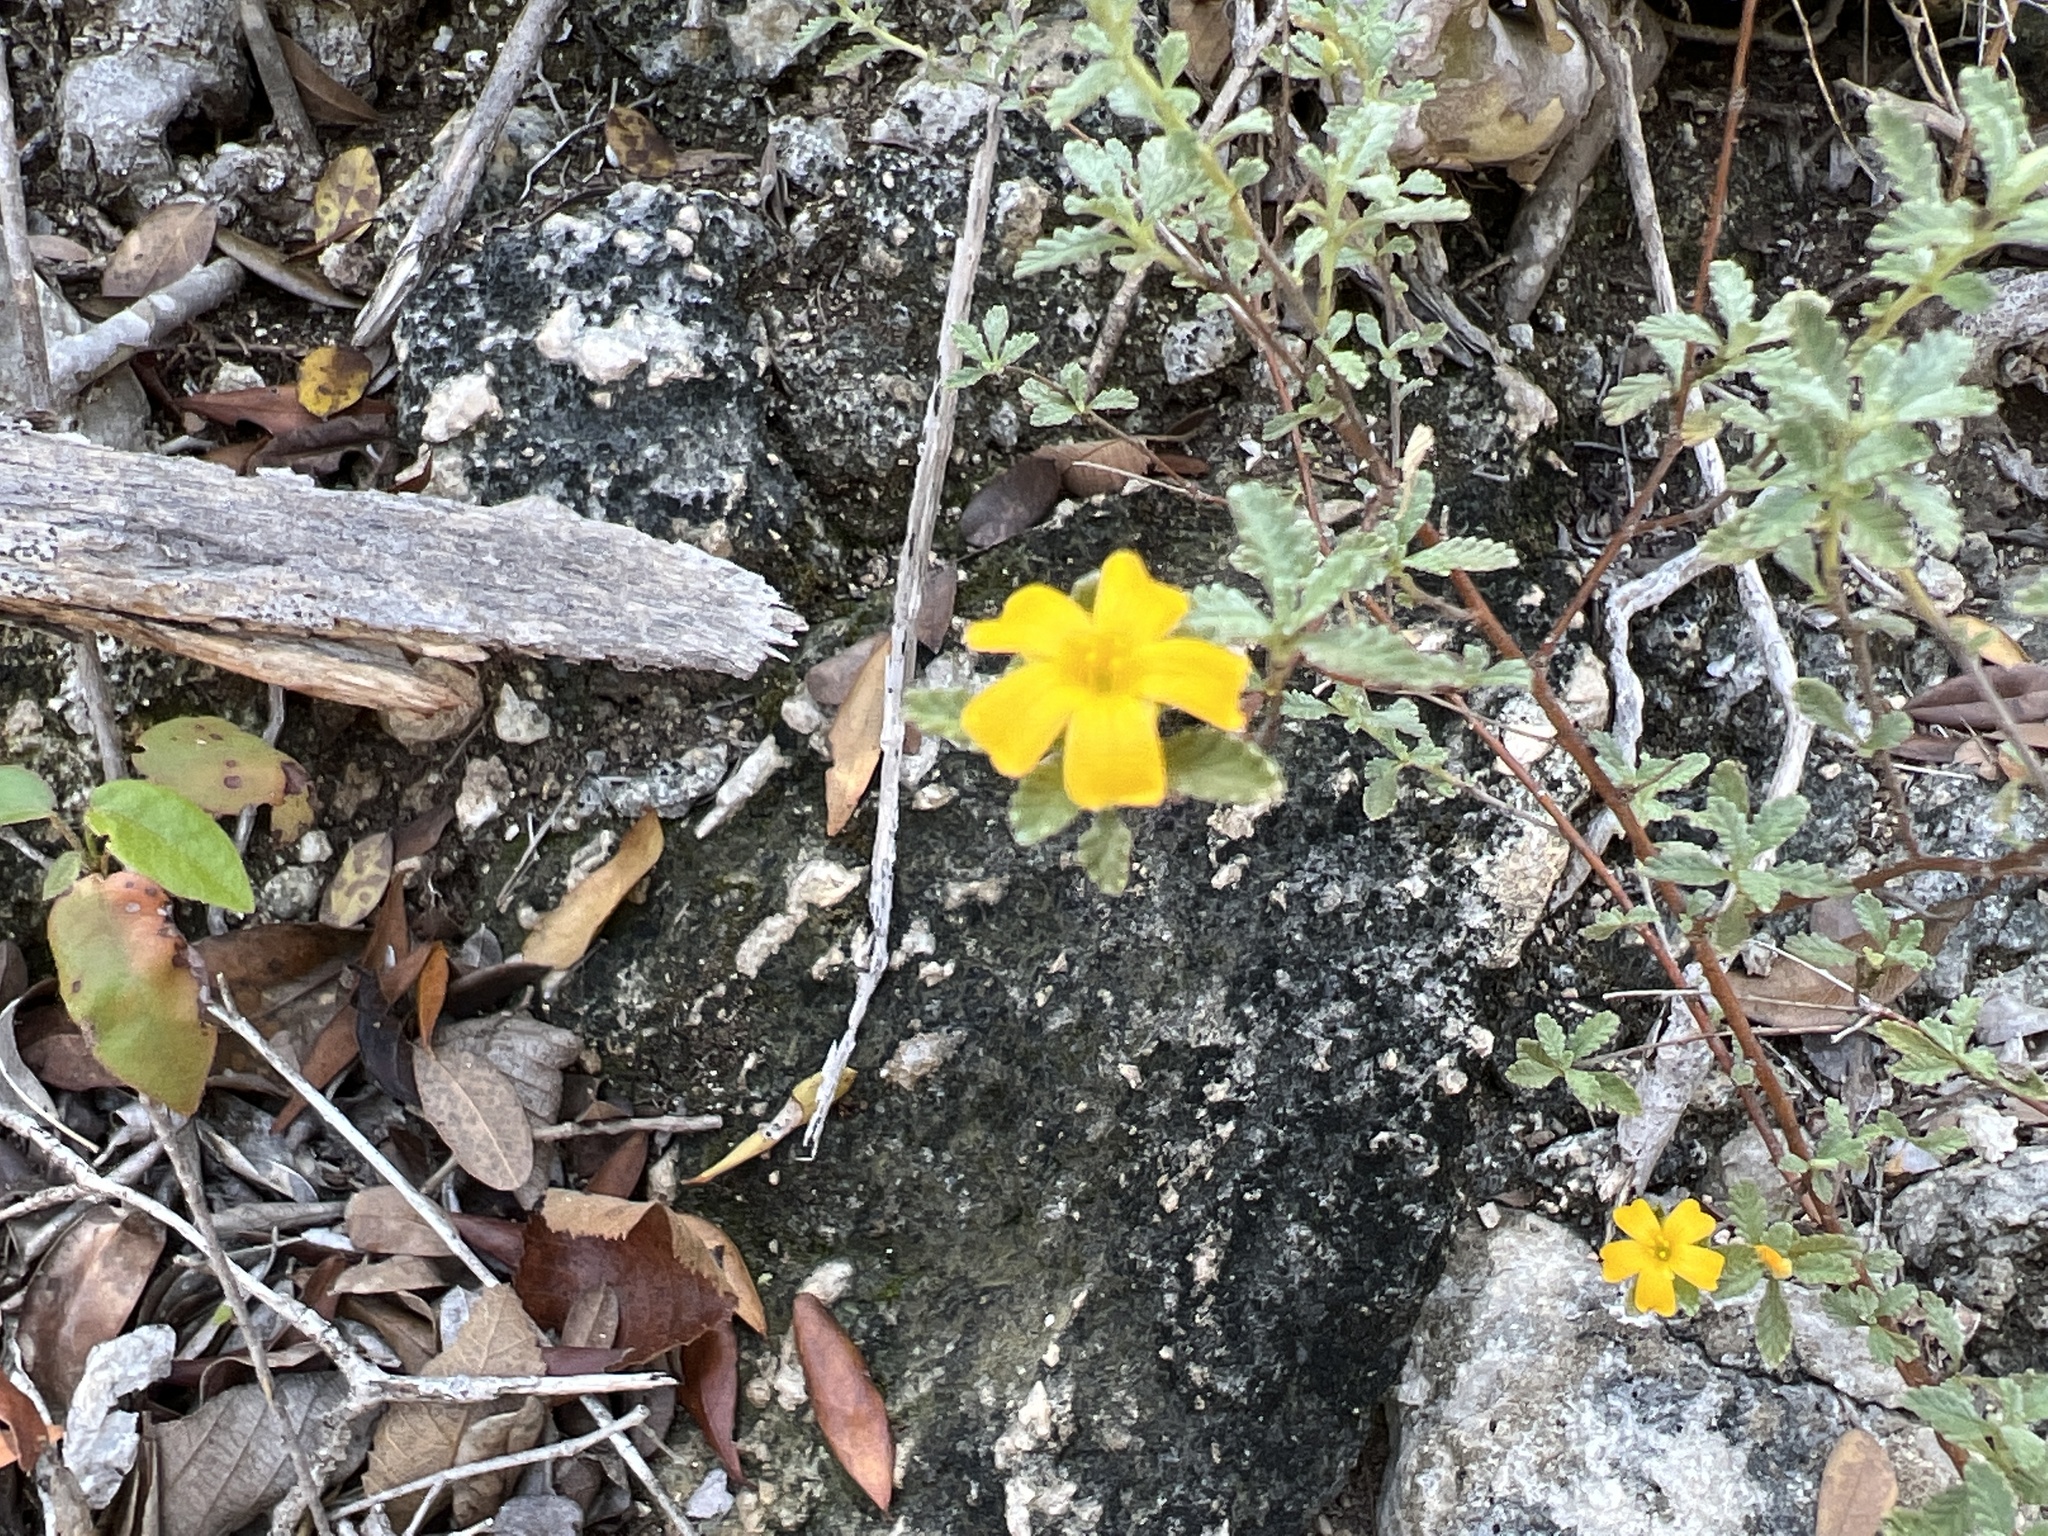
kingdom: Plantae
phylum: Tracheophyta
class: Magnoliopsida
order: Malpighiales
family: Turneraceae
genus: Turnera
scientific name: Turnera diffusa
